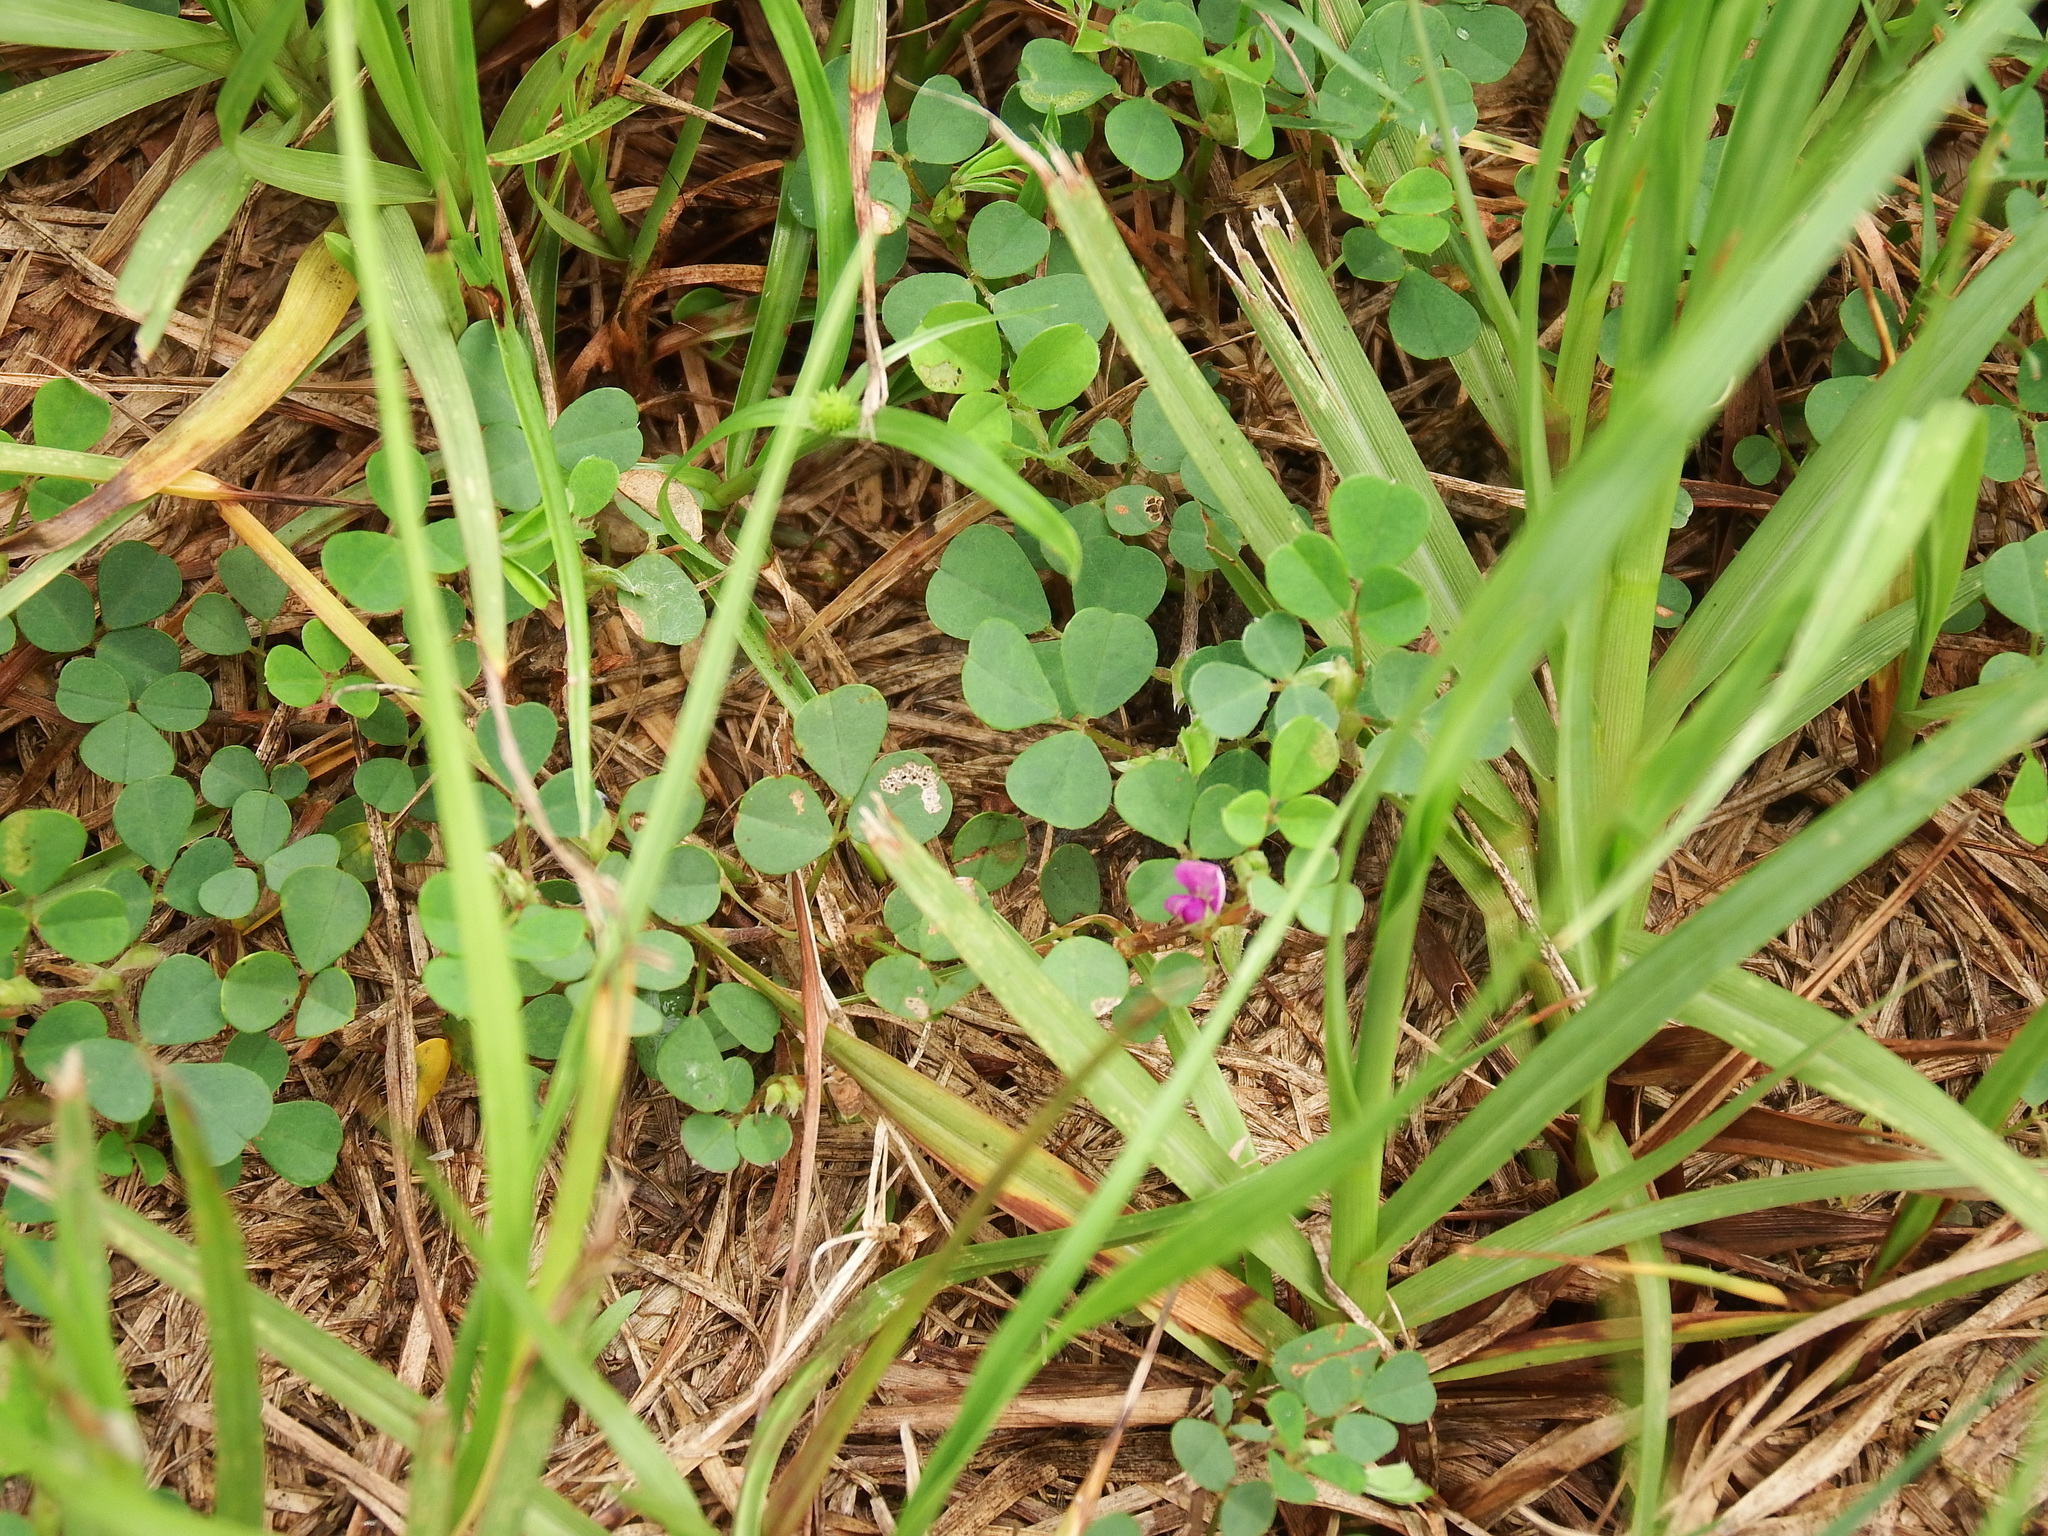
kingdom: Plantae
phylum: Tracheophyta
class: Magnoliopsida
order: Fabales
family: Fabaceae
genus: Grona
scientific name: Grona triflora
